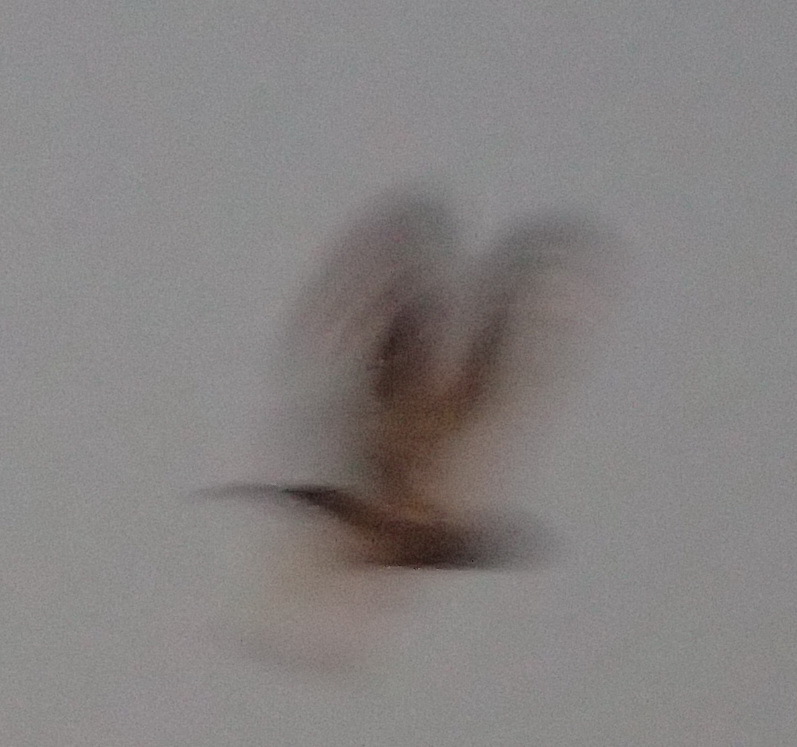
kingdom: Animalia
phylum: Chordata
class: Aves
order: Strigiformes
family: Strigidae
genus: Bubo
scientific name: Bubo africanus
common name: Spotted eagle-owl
